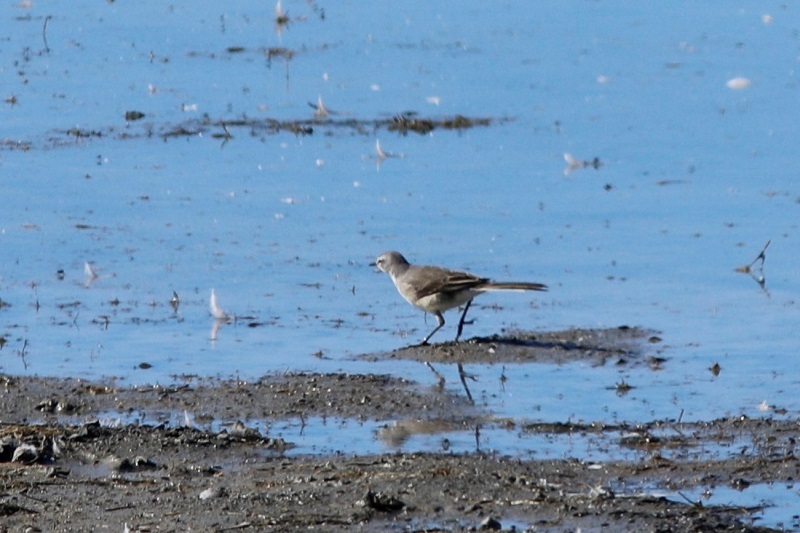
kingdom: Animalia
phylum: Chordata
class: Aves
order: Passeriformes
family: Motacillidae
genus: Motacilla
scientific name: Motacilla capensis
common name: Cape wagtail
